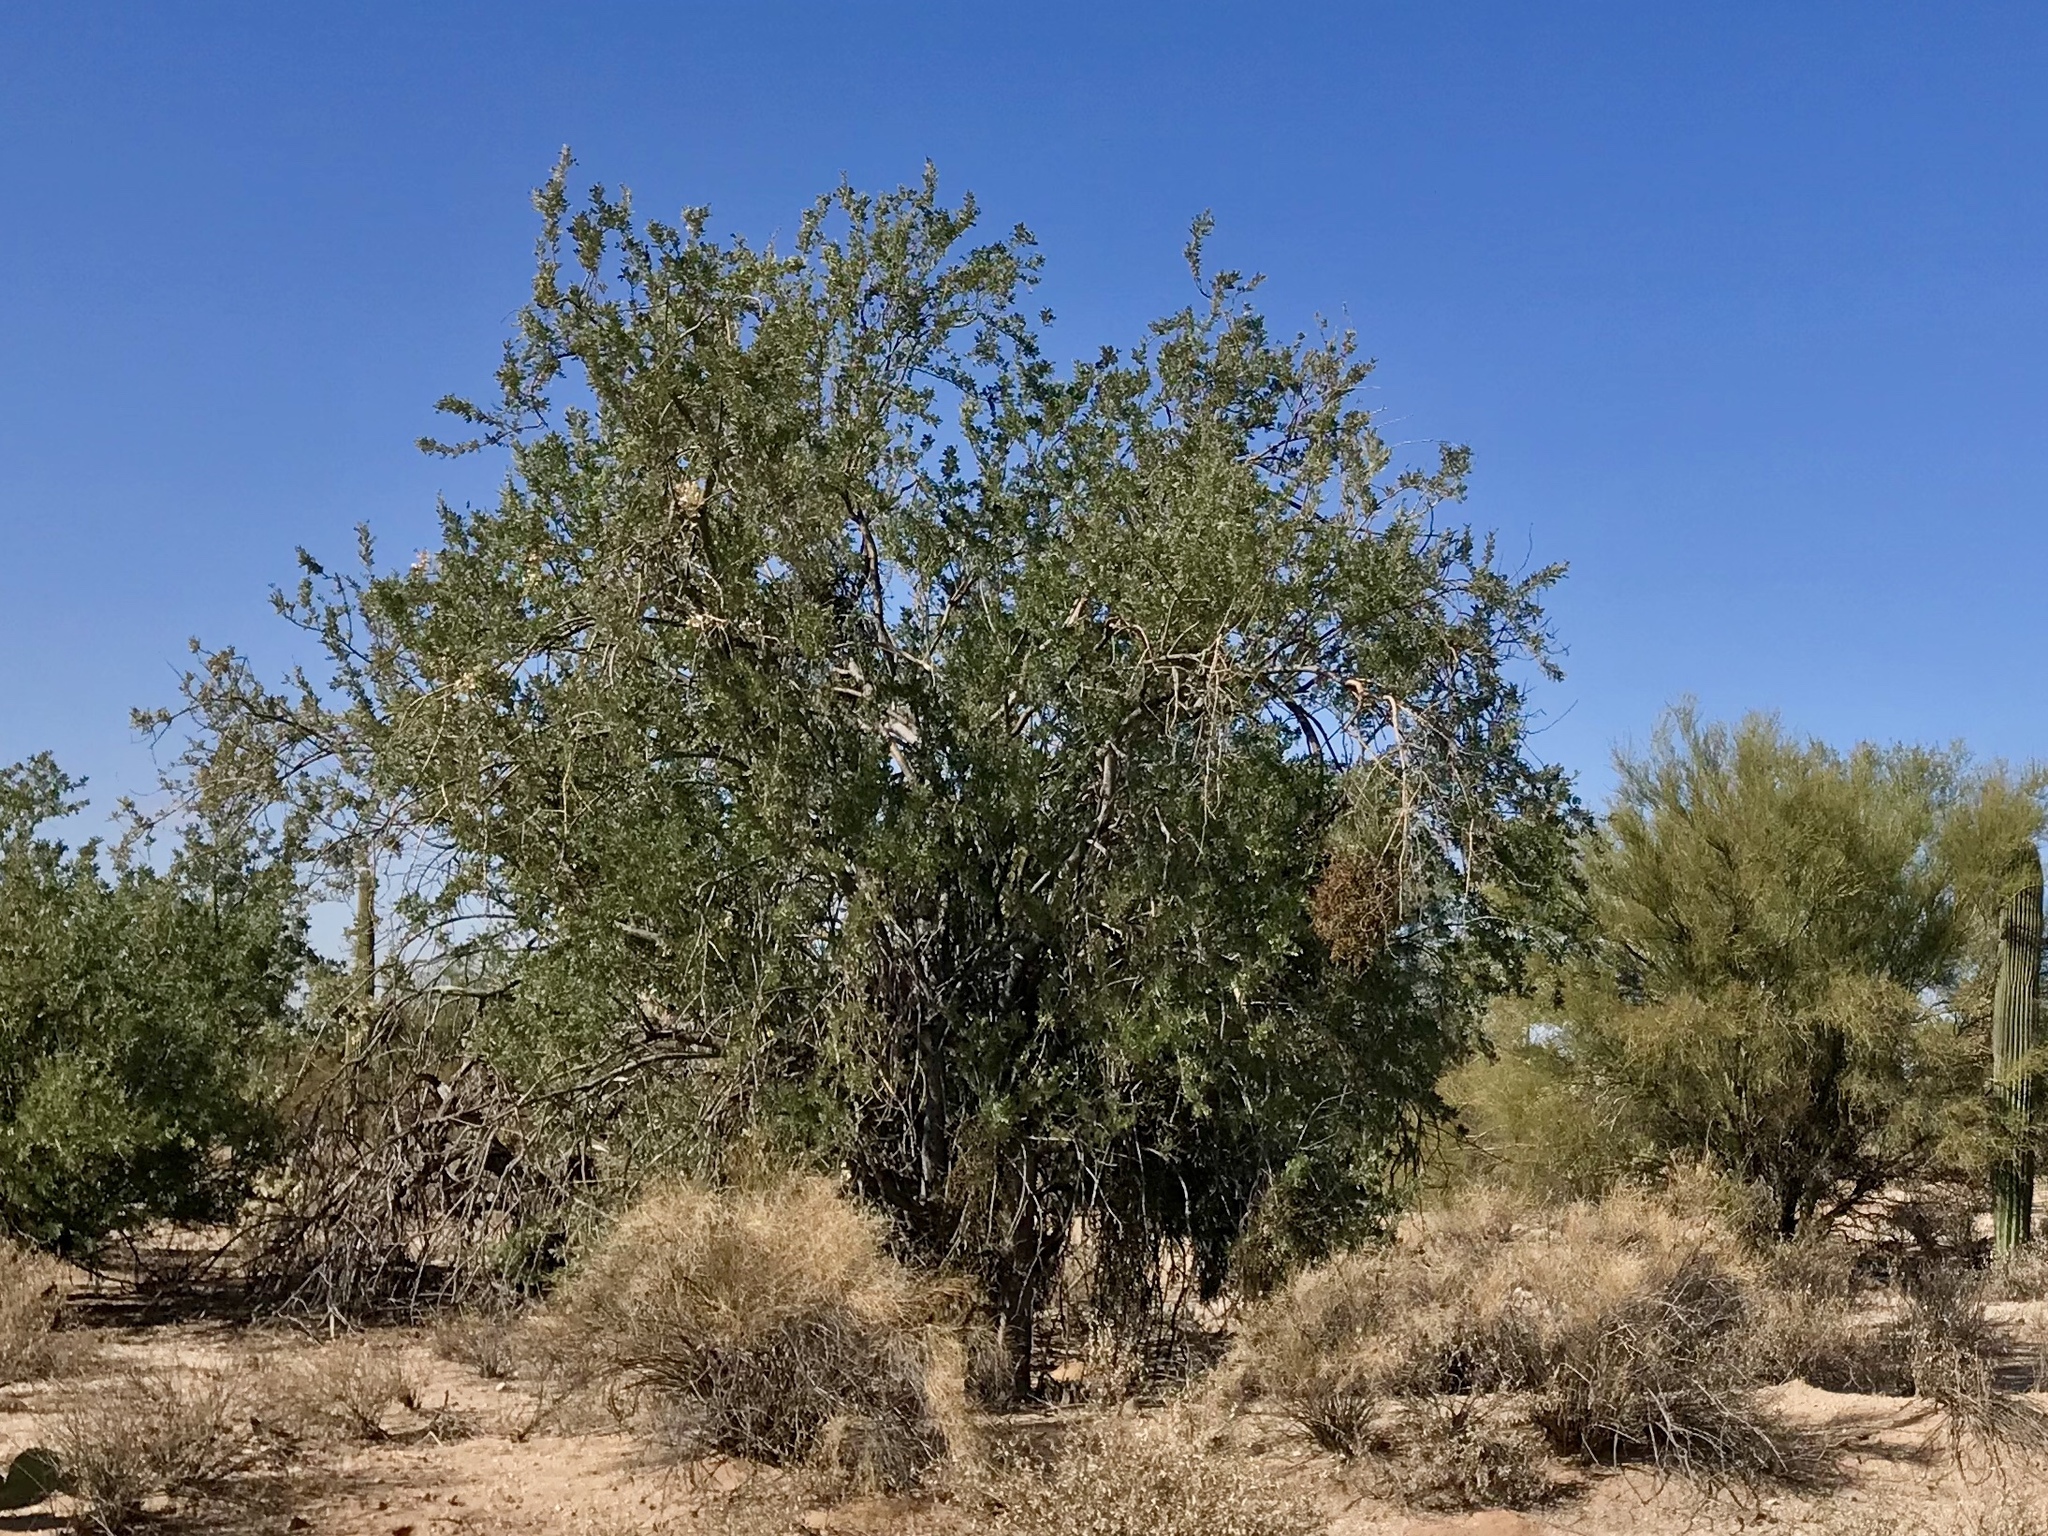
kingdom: Plantae
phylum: Tracheophyta
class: Magnoliopsida
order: Fabales
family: Fabaceae
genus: Olneya
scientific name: Olneya tesota
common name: Desert ironwood
